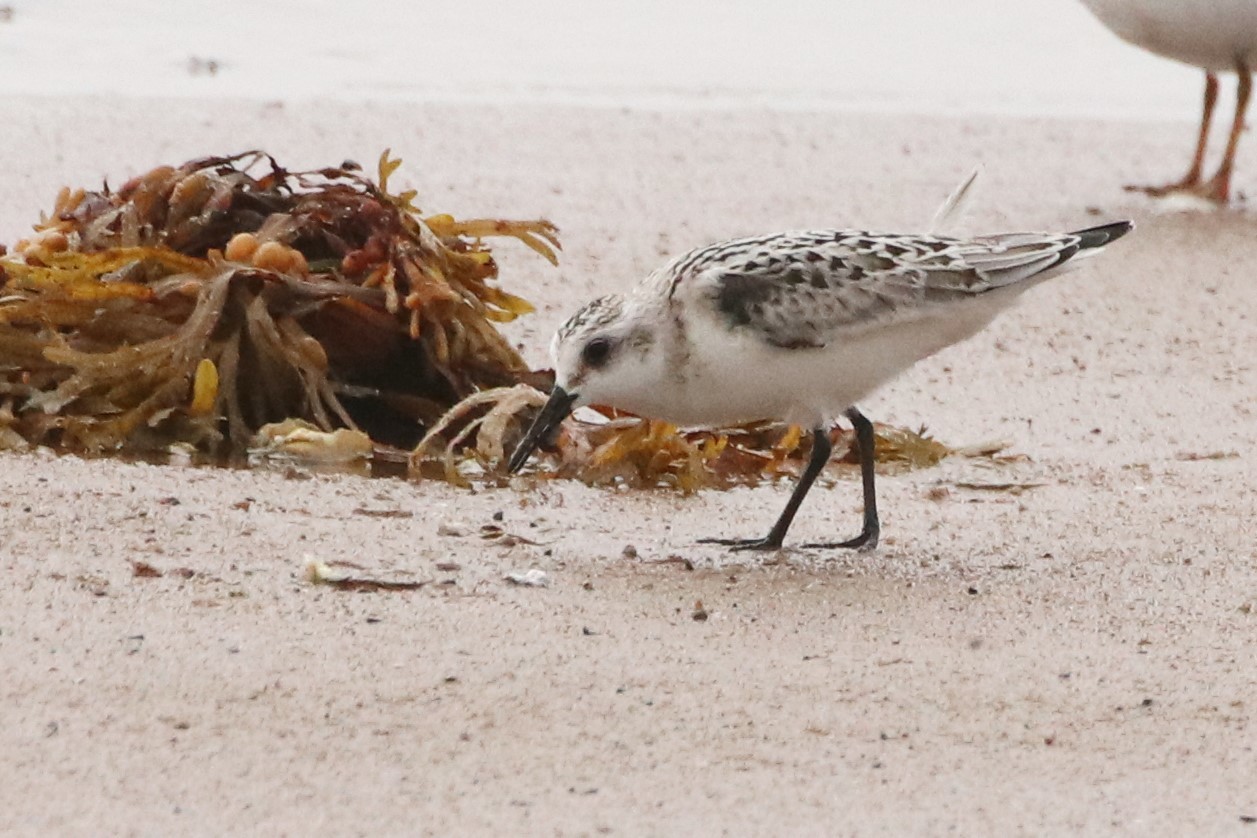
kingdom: Animalia
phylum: Chordata
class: Aves
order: Charadriiformes
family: Scolopacidae
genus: Calidris
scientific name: Calidris alba
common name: Sanderling
